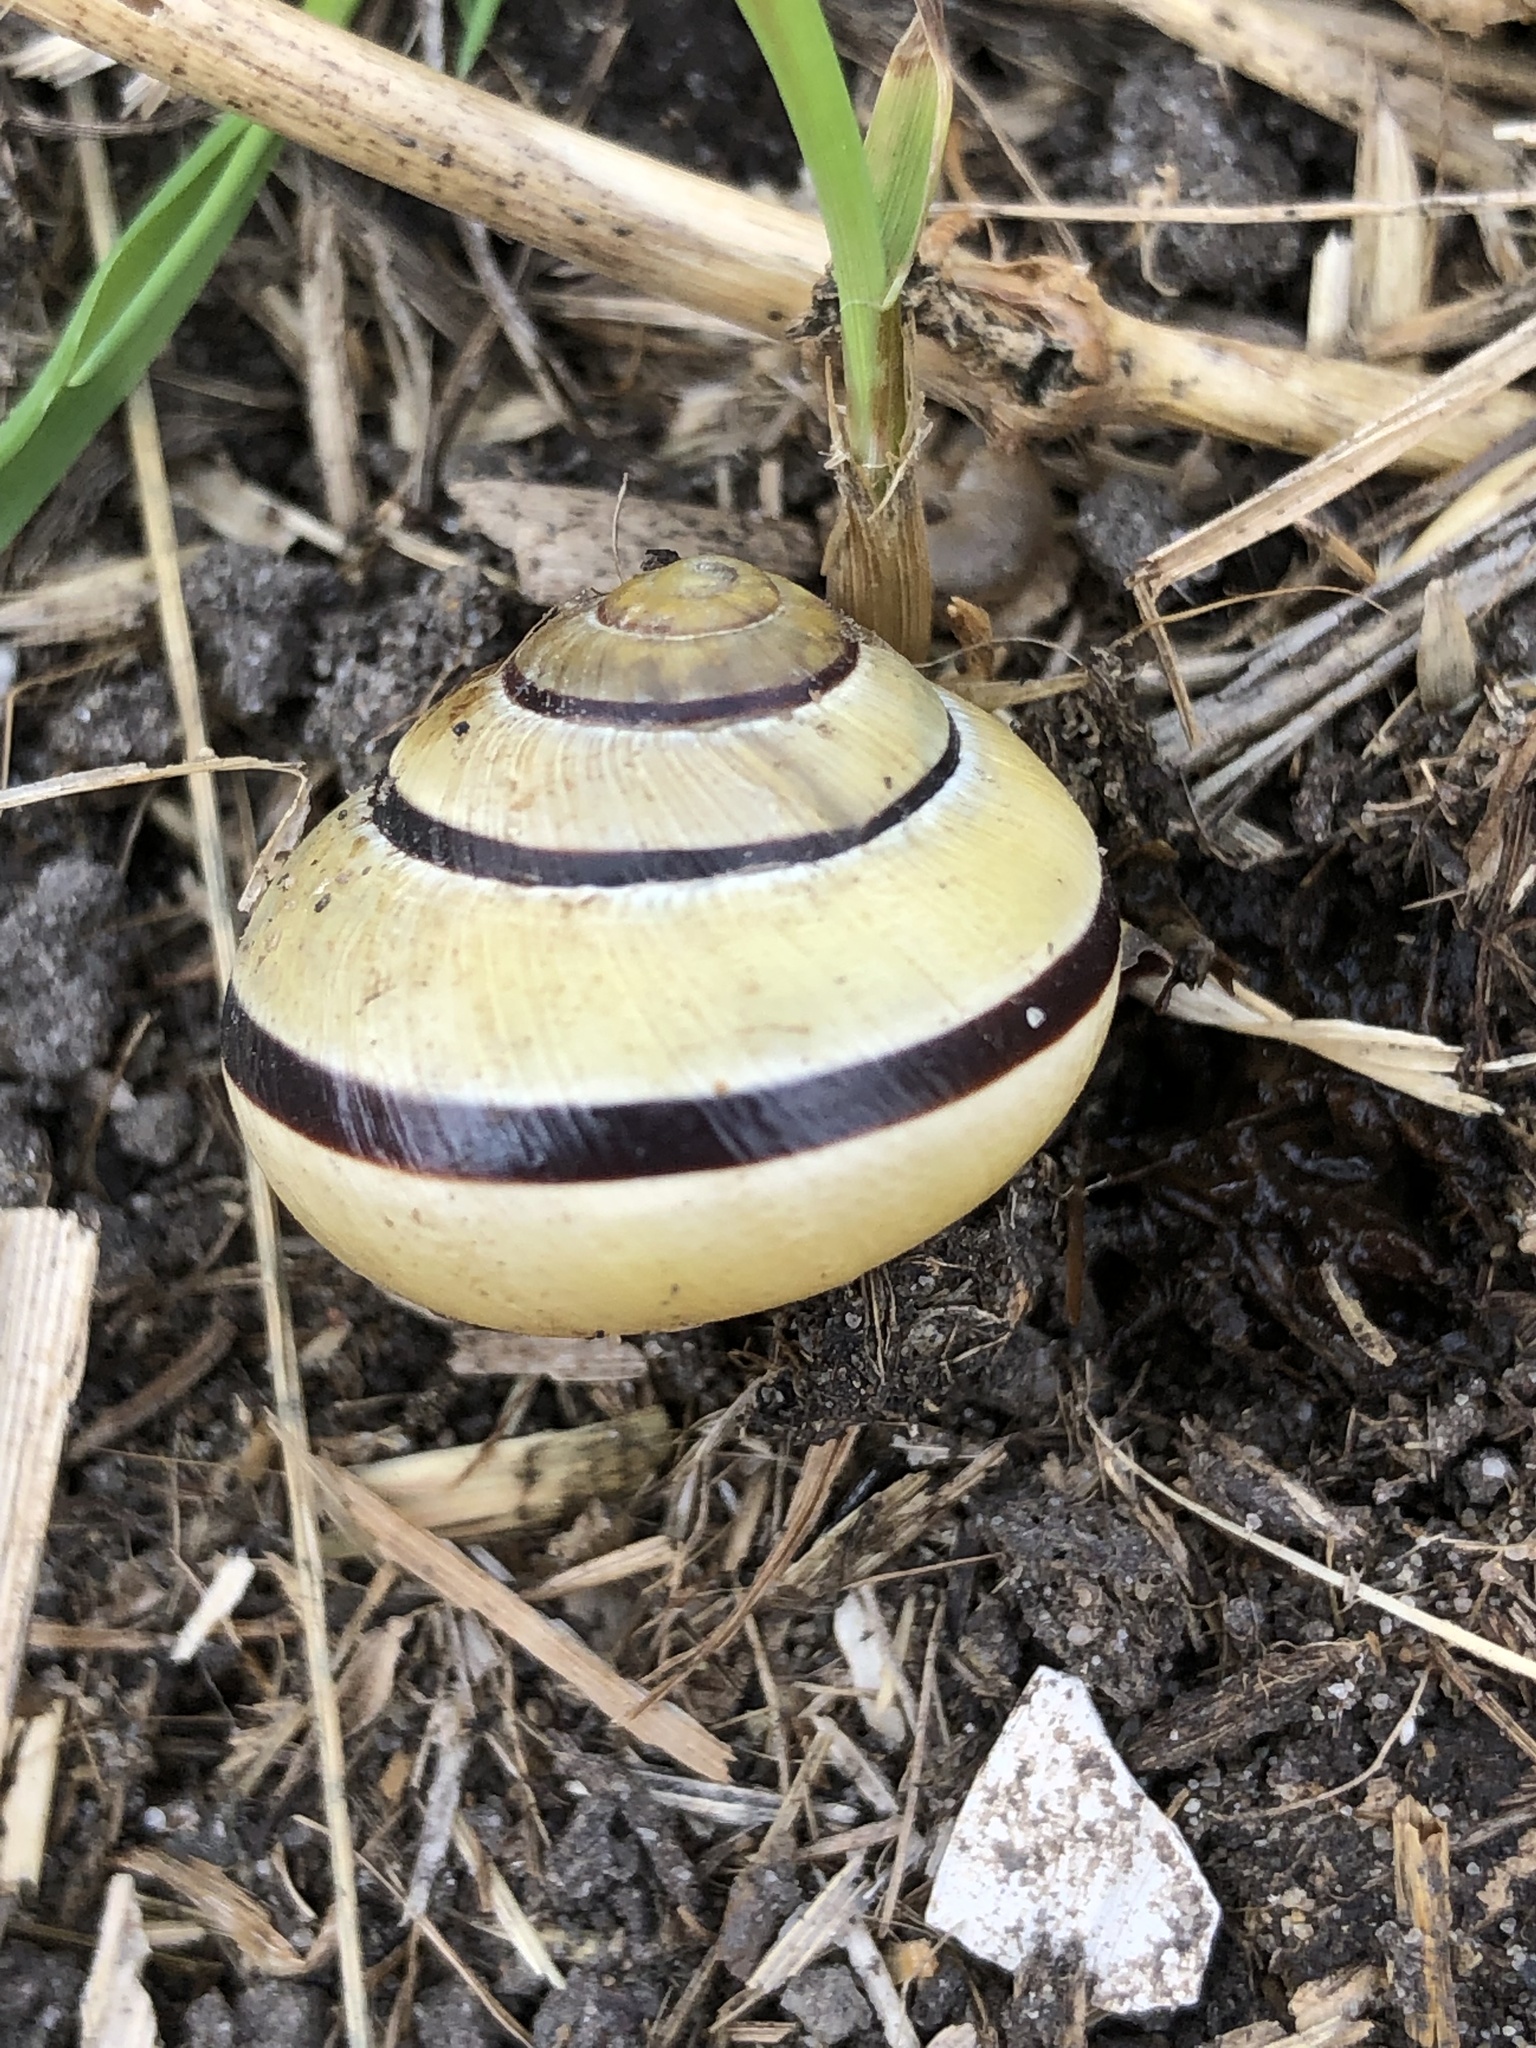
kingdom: Animalia
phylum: Mollusca
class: Gastropoda
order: Stylommatophora
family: Helicidae
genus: Cepaea
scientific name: Cepaea nemoralis
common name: Grovesnail
